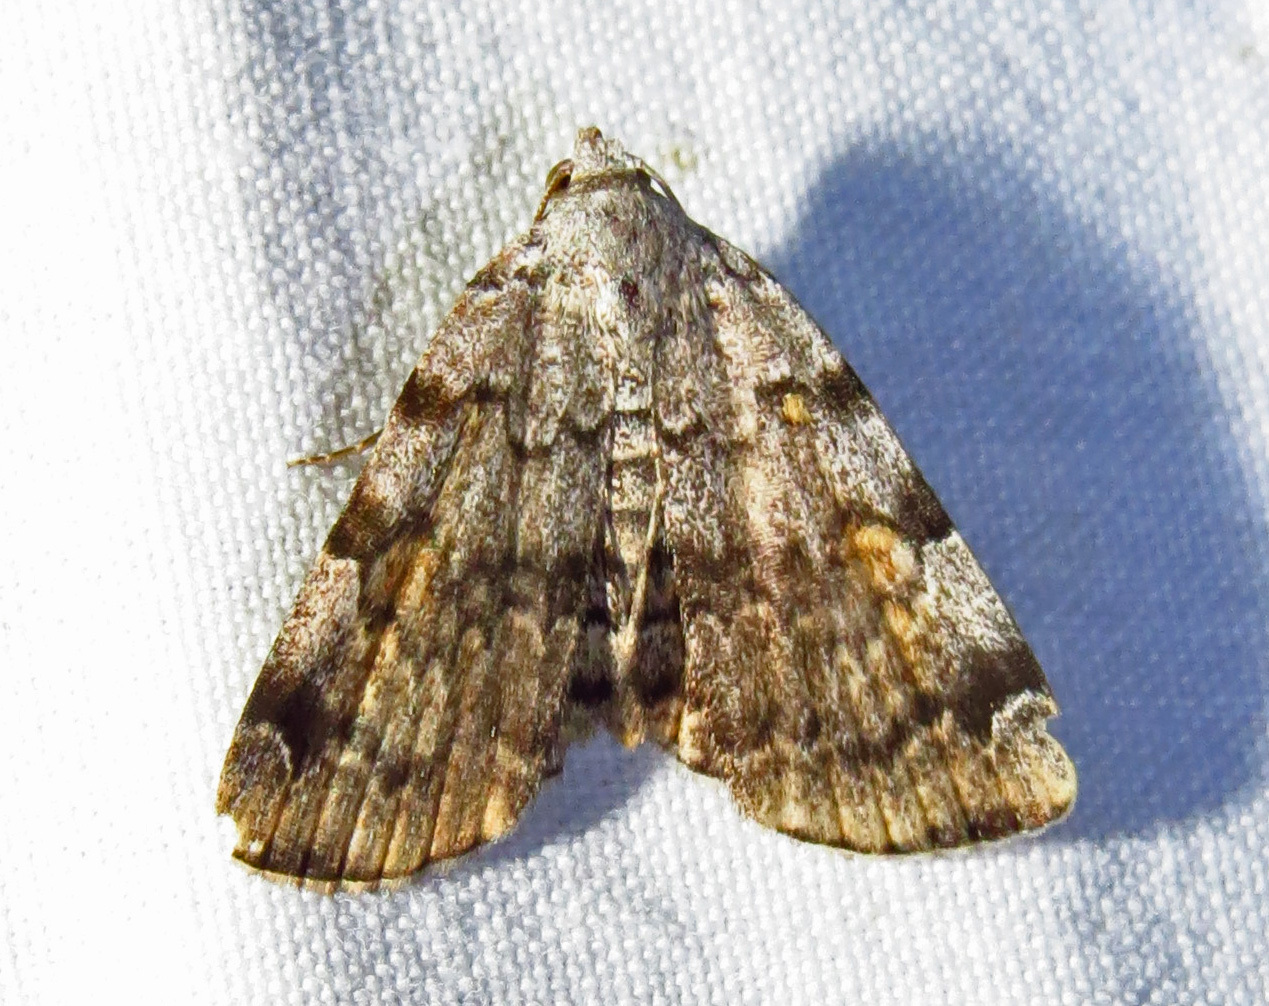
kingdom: Animalia
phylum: Arthropoda
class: Insecta
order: Lepidoptera
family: Erebidae
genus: Idia
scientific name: Idia americalis
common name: American idia moth
